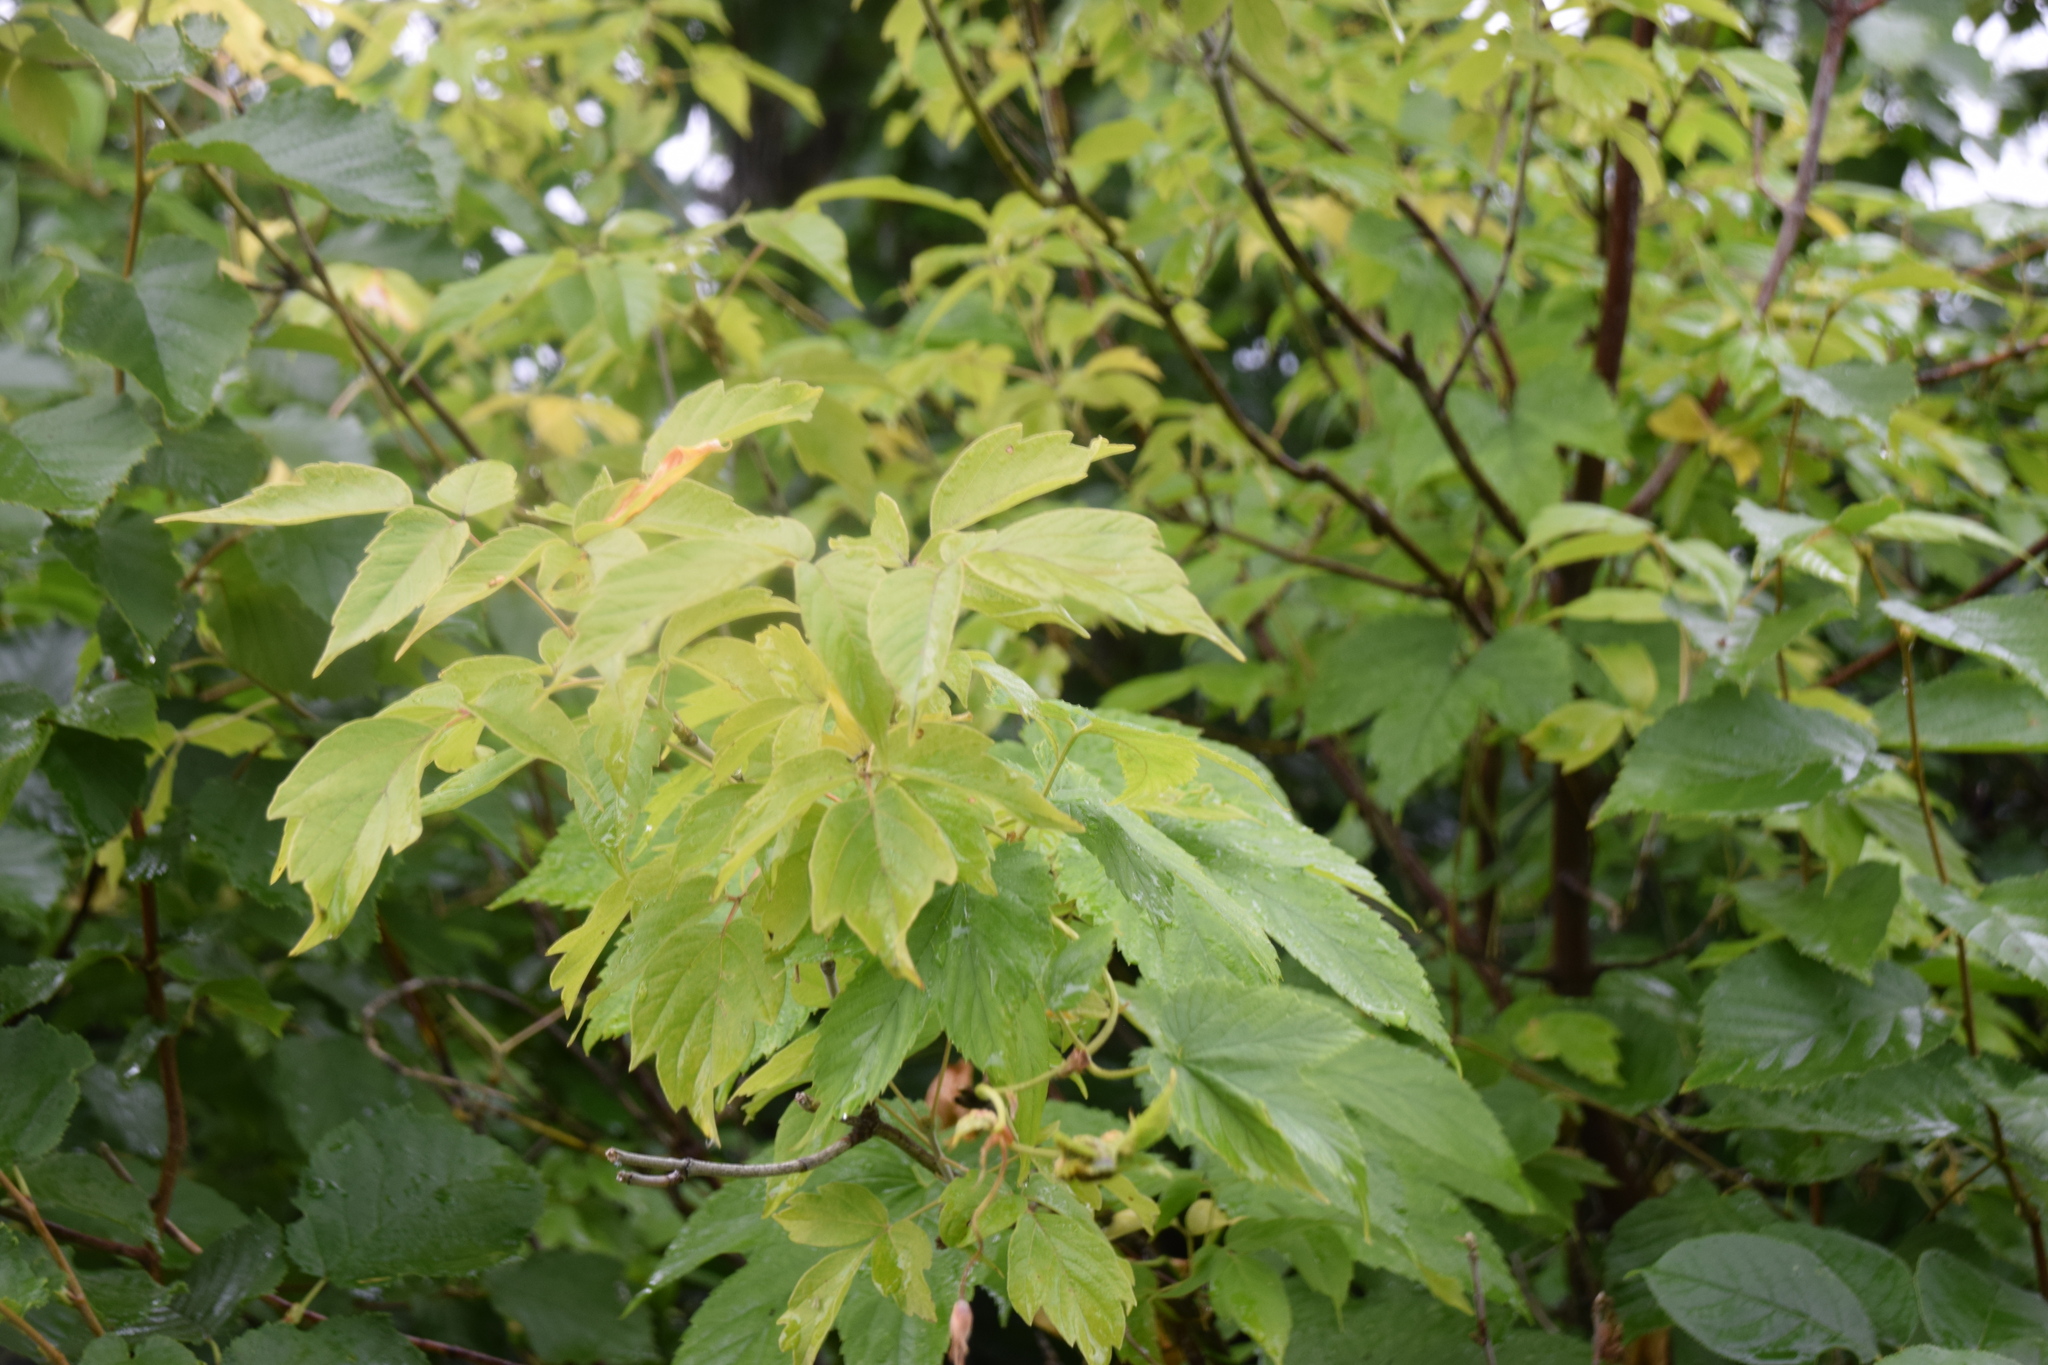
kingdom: Plantae
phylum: Tracheophyta
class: Magnoliopsida
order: Sapindales
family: Sapindaceae
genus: Acer
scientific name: Acer negundo
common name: Ashleaf maple
